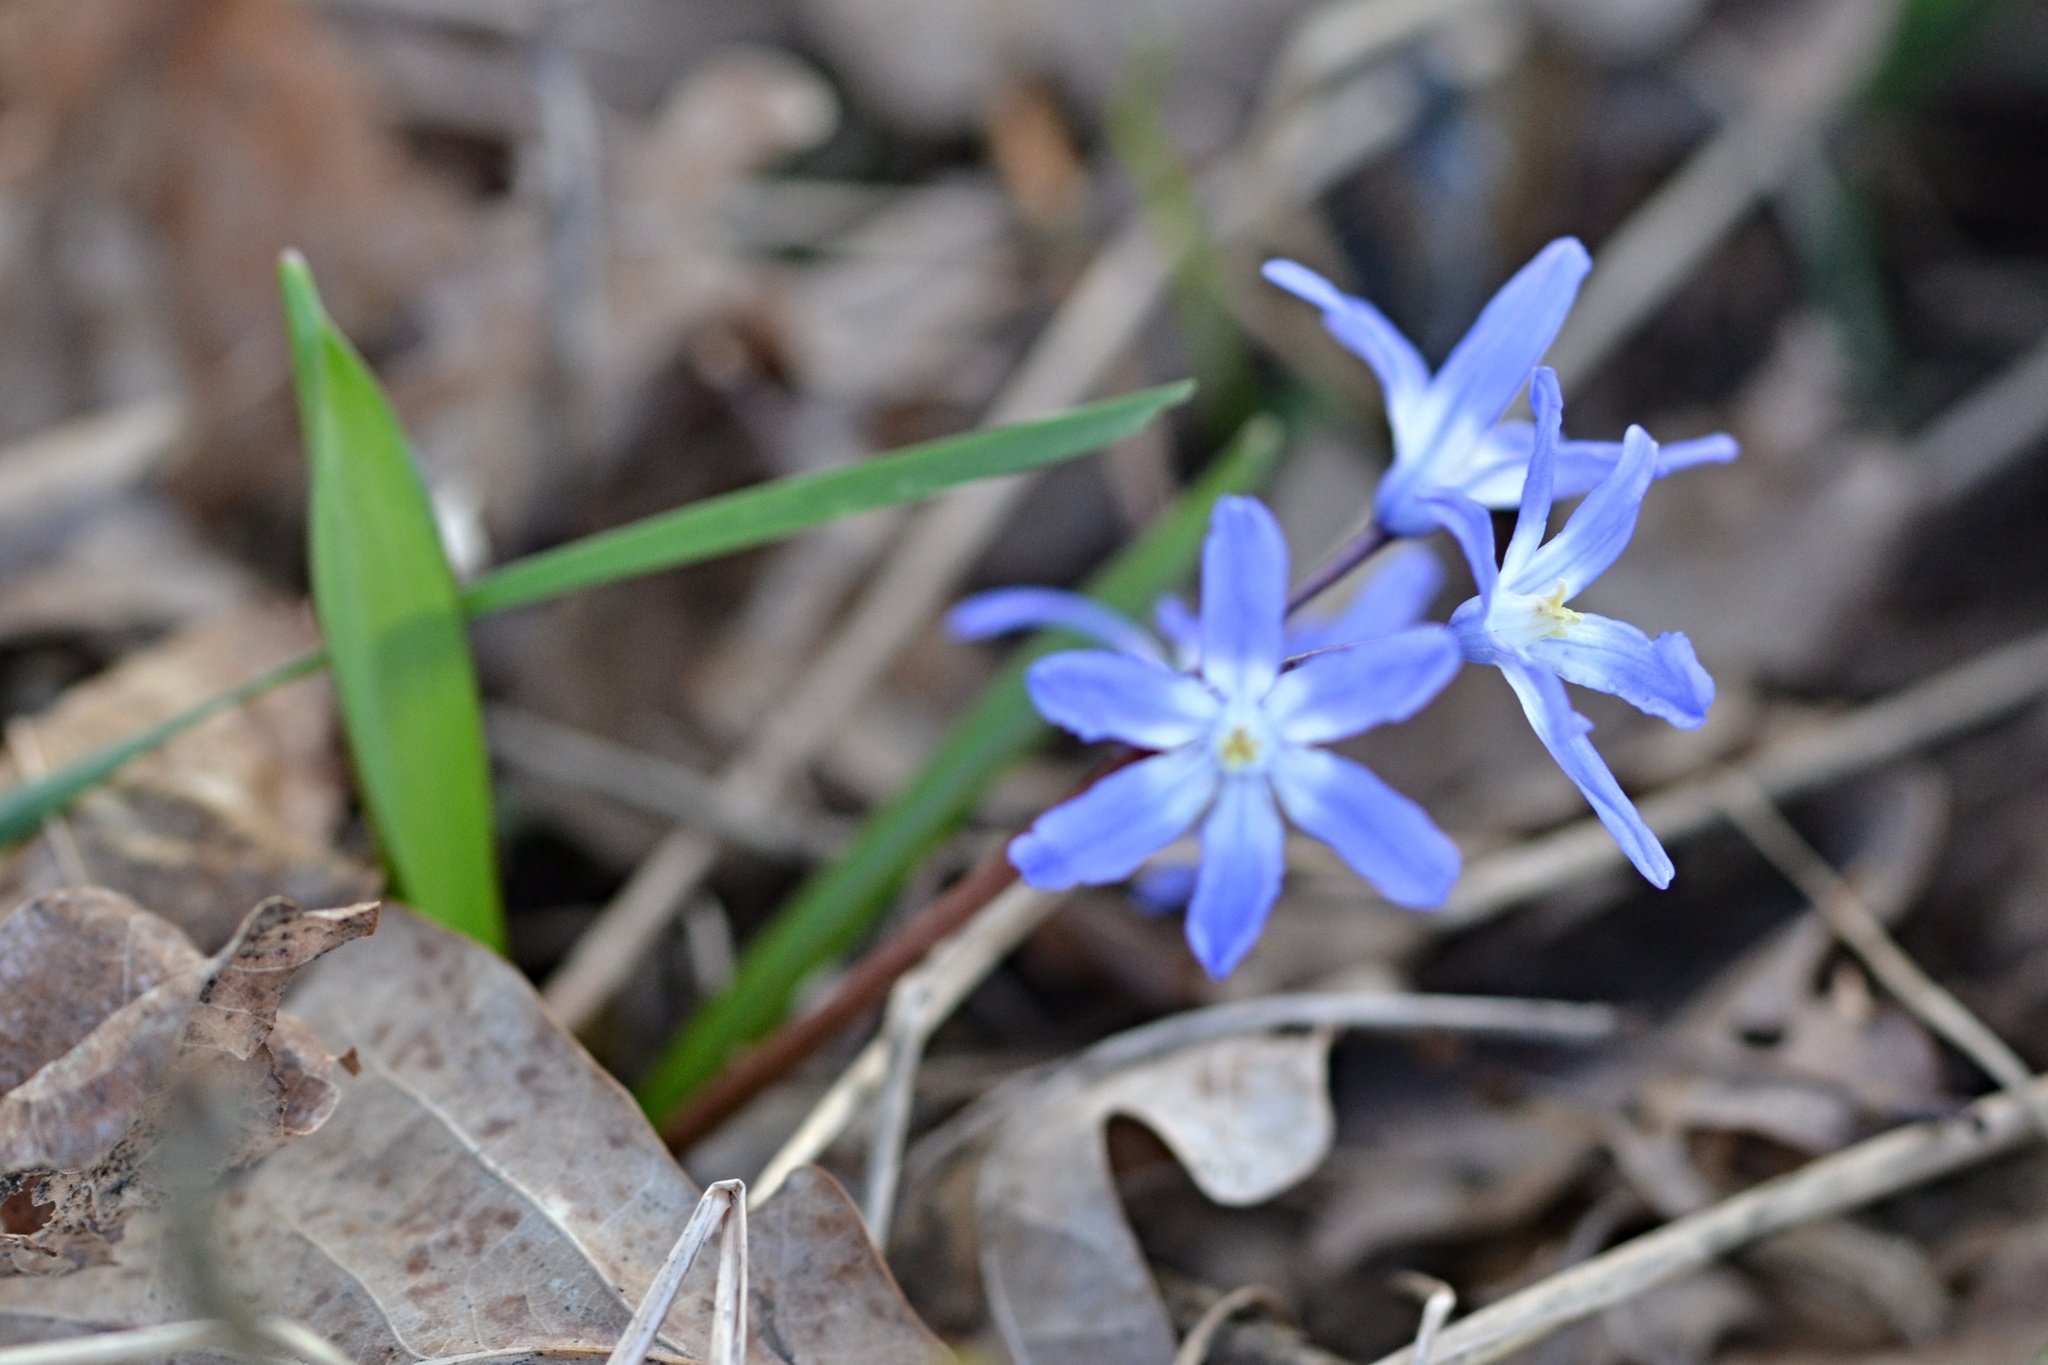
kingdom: Plantae
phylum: Tracheophyta
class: Liliopsida
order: Asparagales
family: Asparagaceae
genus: Scilla
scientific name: Scilla forbesii
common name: Glory-of-the-snow
